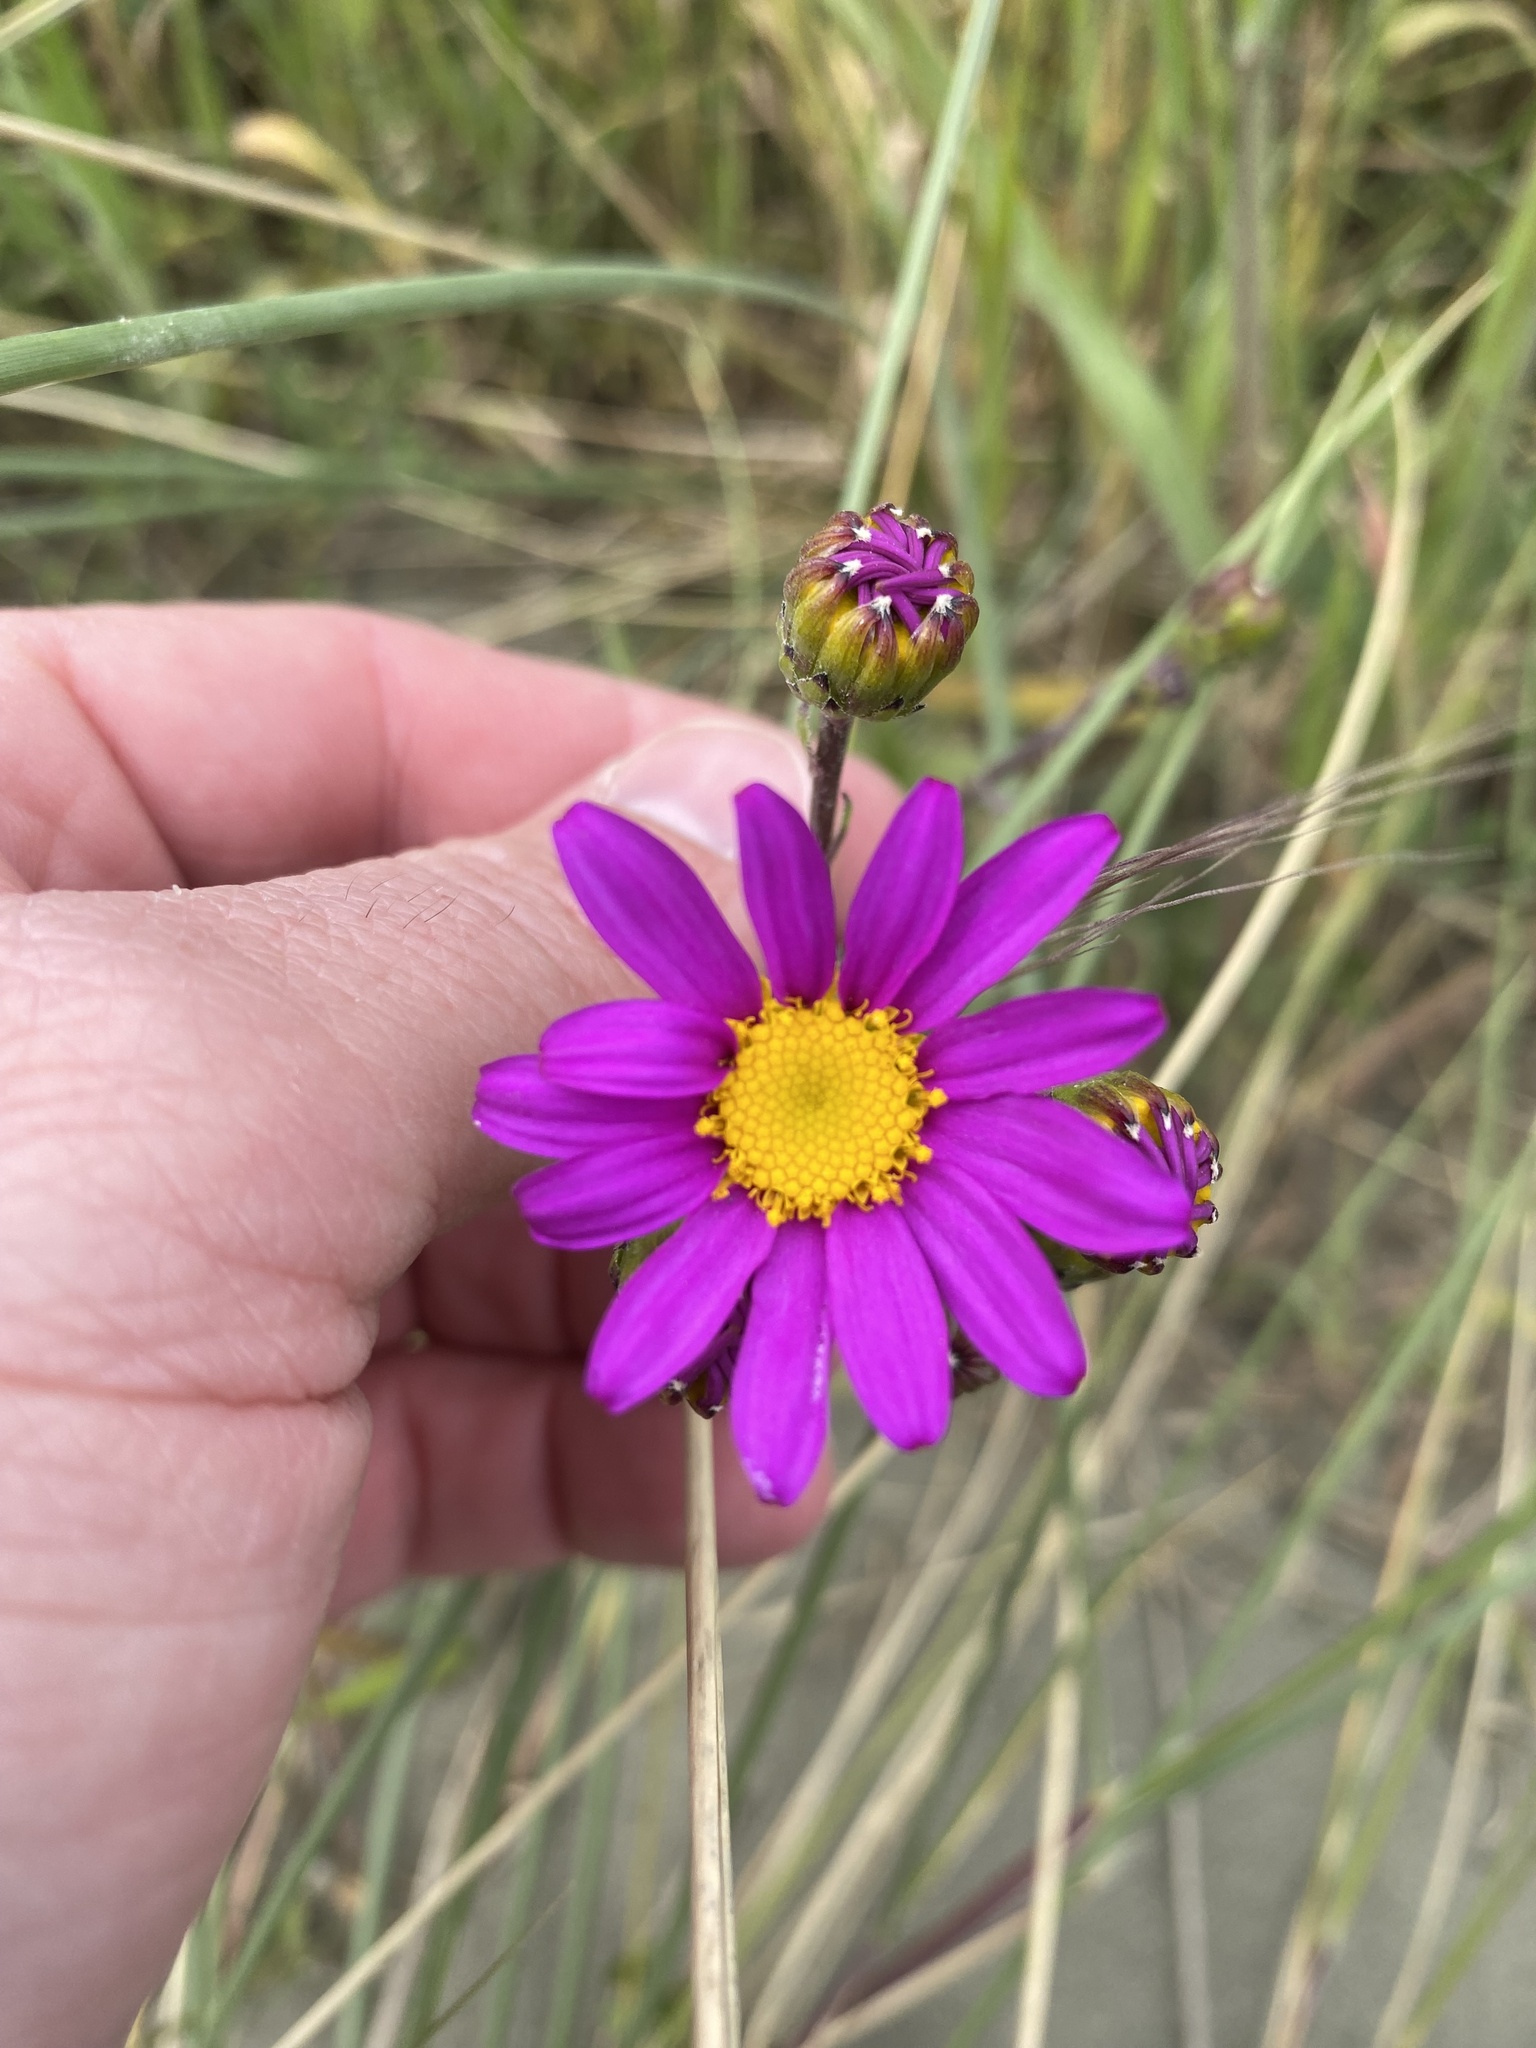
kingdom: Plantae
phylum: Tracheophyta
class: Magnoliopsida
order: Asterales
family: Asteraceae
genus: Senecio
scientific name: Senecio elegans
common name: Purple groundsel
